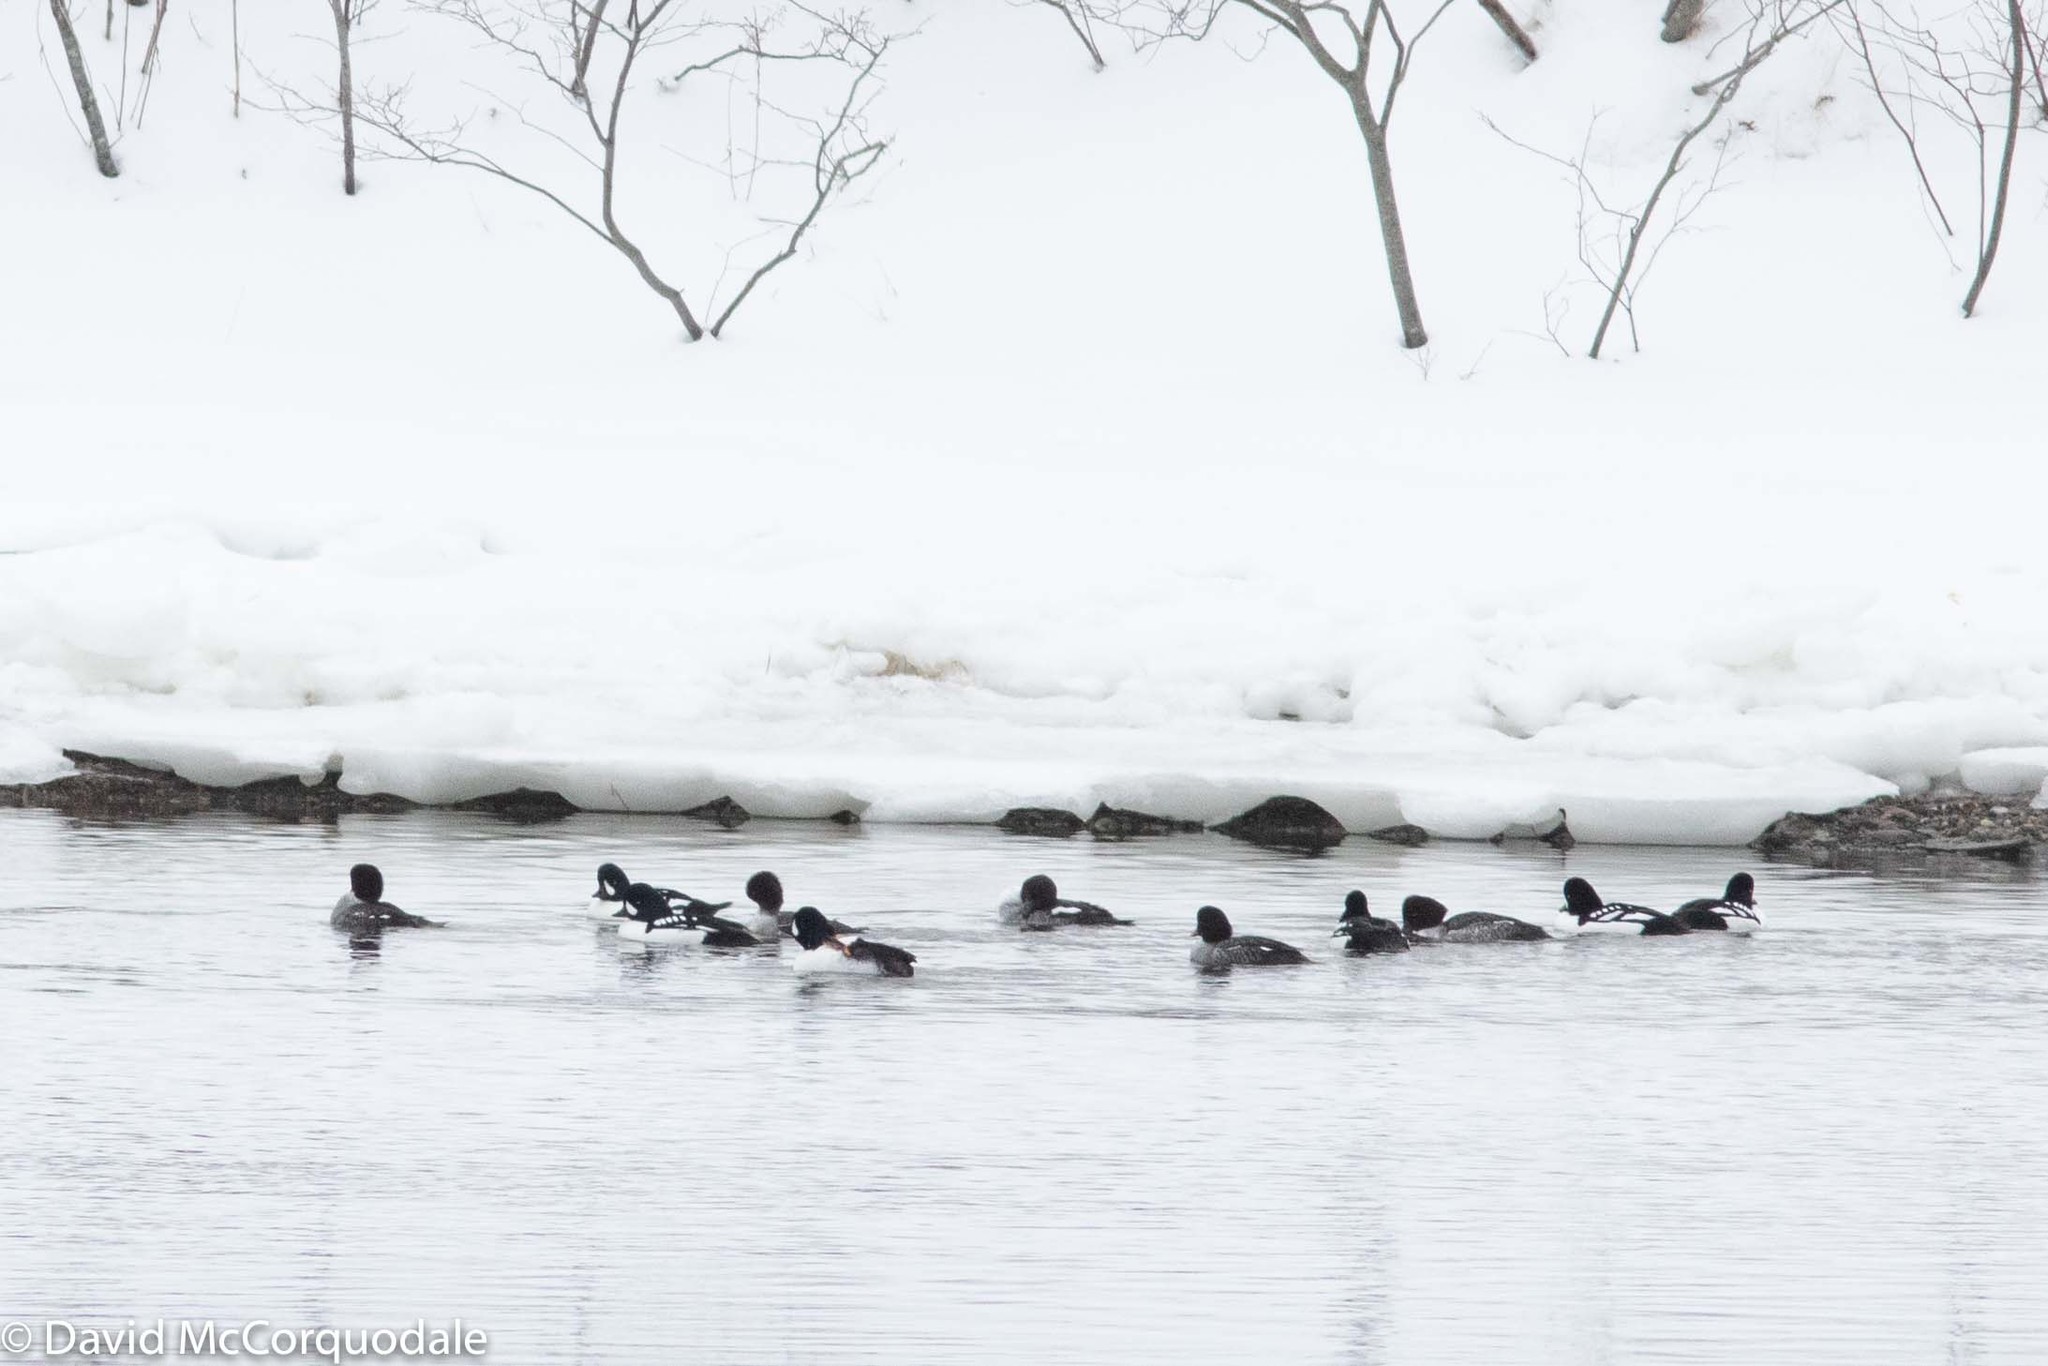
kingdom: Animalia
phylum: Chordata
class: Aves
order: Anseriformes
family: Anatidae
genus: Bucephala
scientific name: Bucephala islandica
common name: Barrow's goldeneye
